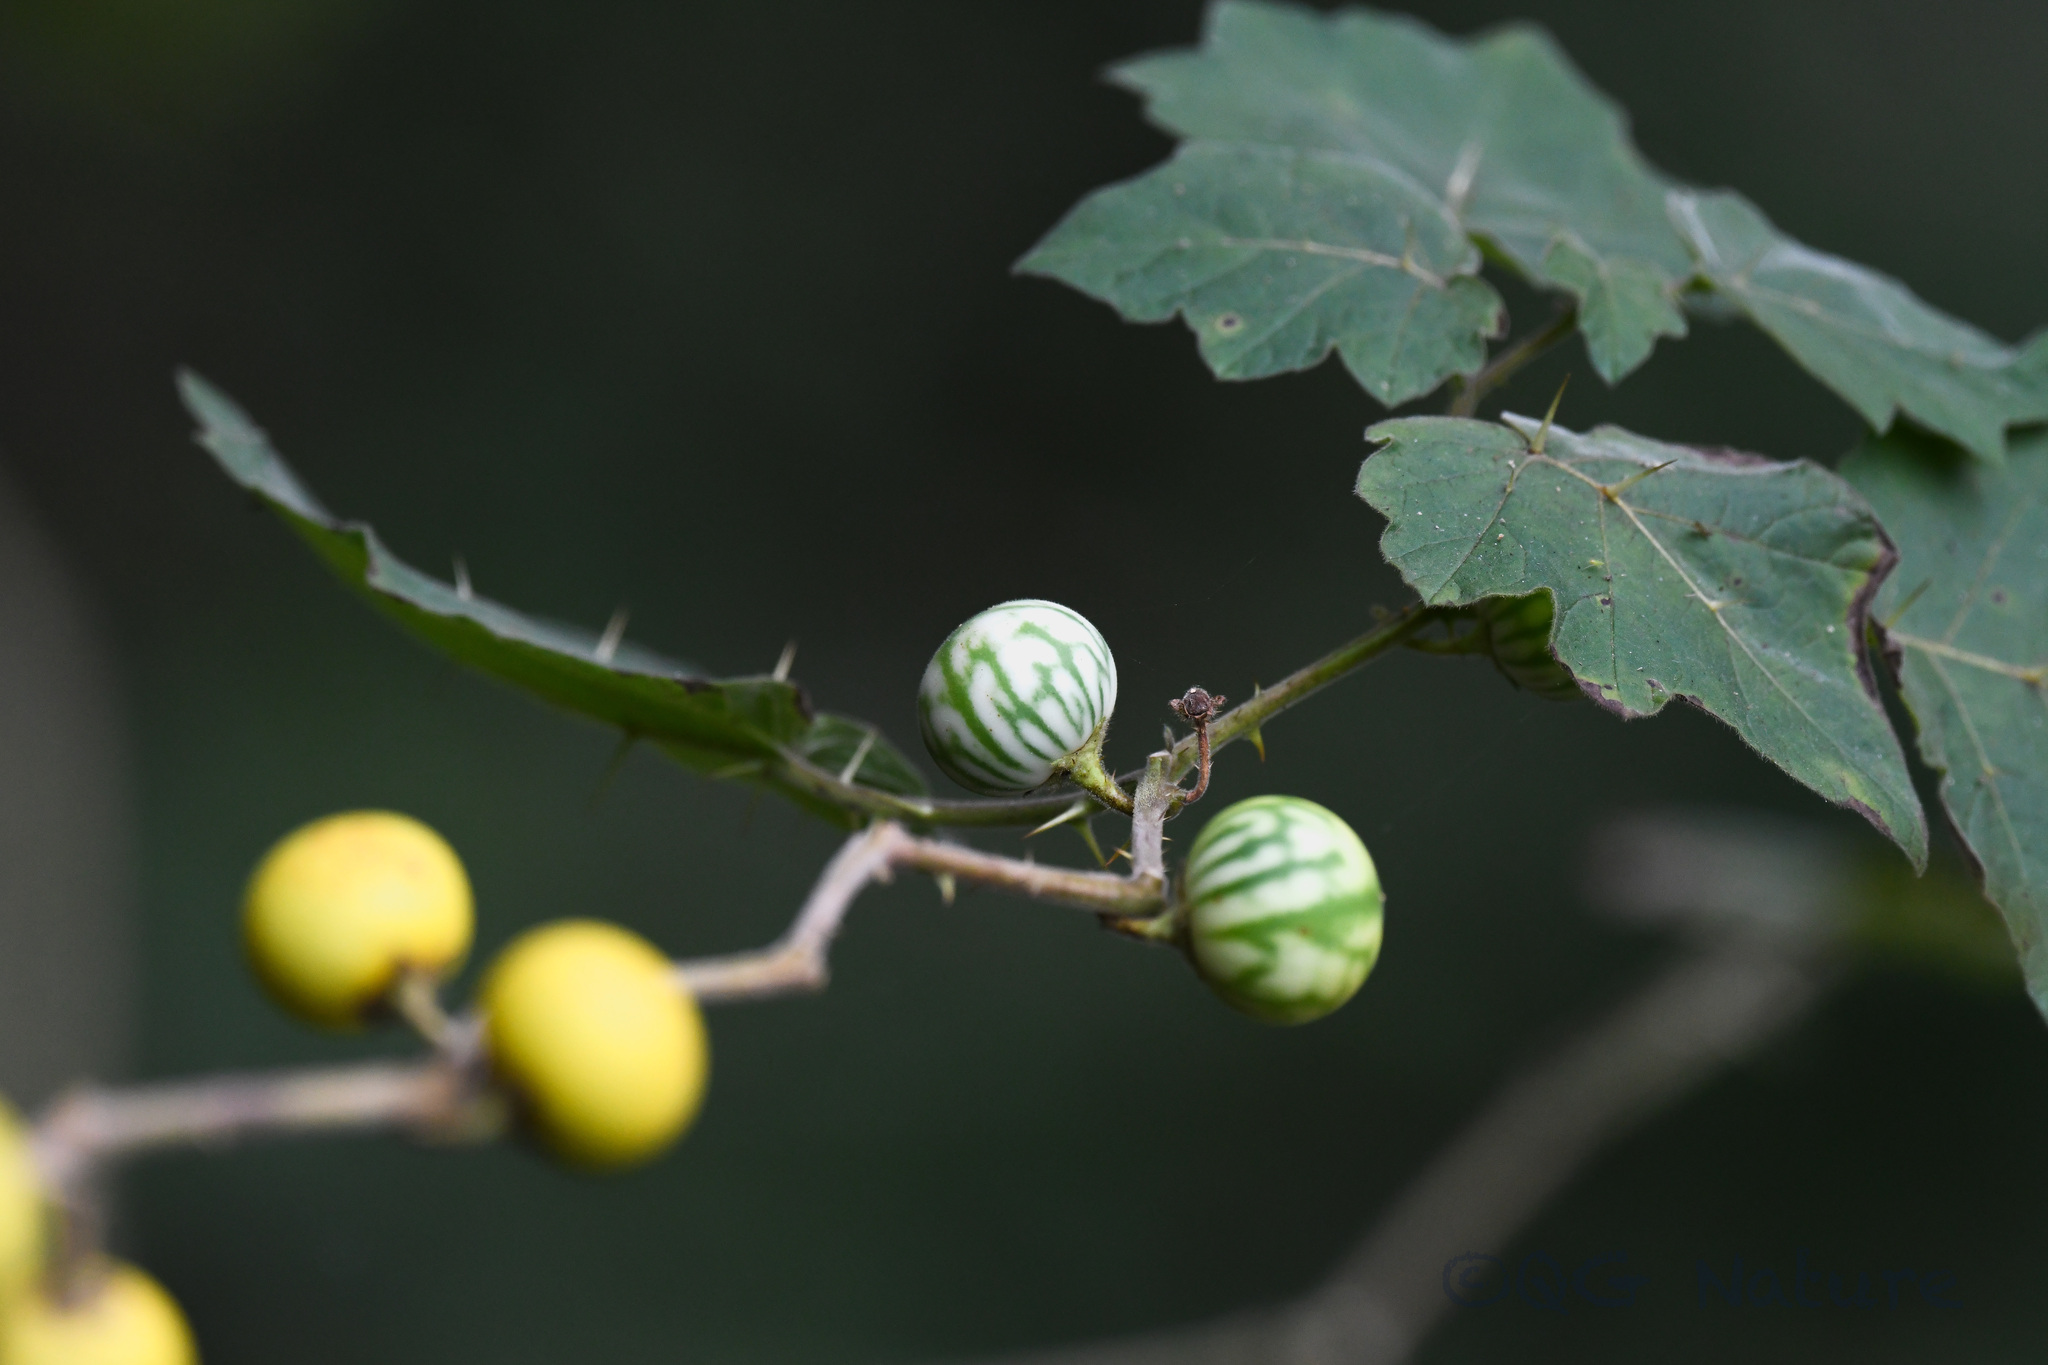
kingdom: Plantae
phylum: Tracheophyta
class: Magnoliopsida
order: Solanales
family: Solanaceae
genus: Solanum
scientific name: Solanum viarum
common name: Tropical soda apple
